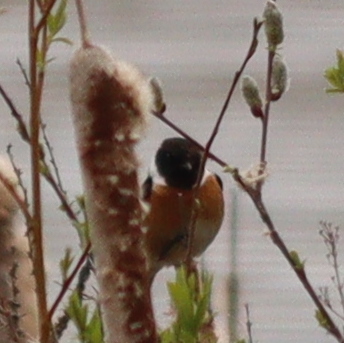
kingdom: Animalia
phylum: Chordata
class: Aves
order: Passeriformes
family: Muscicapidae
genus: Saxicola
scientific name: Saxicola rubicola
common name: European stonechat
